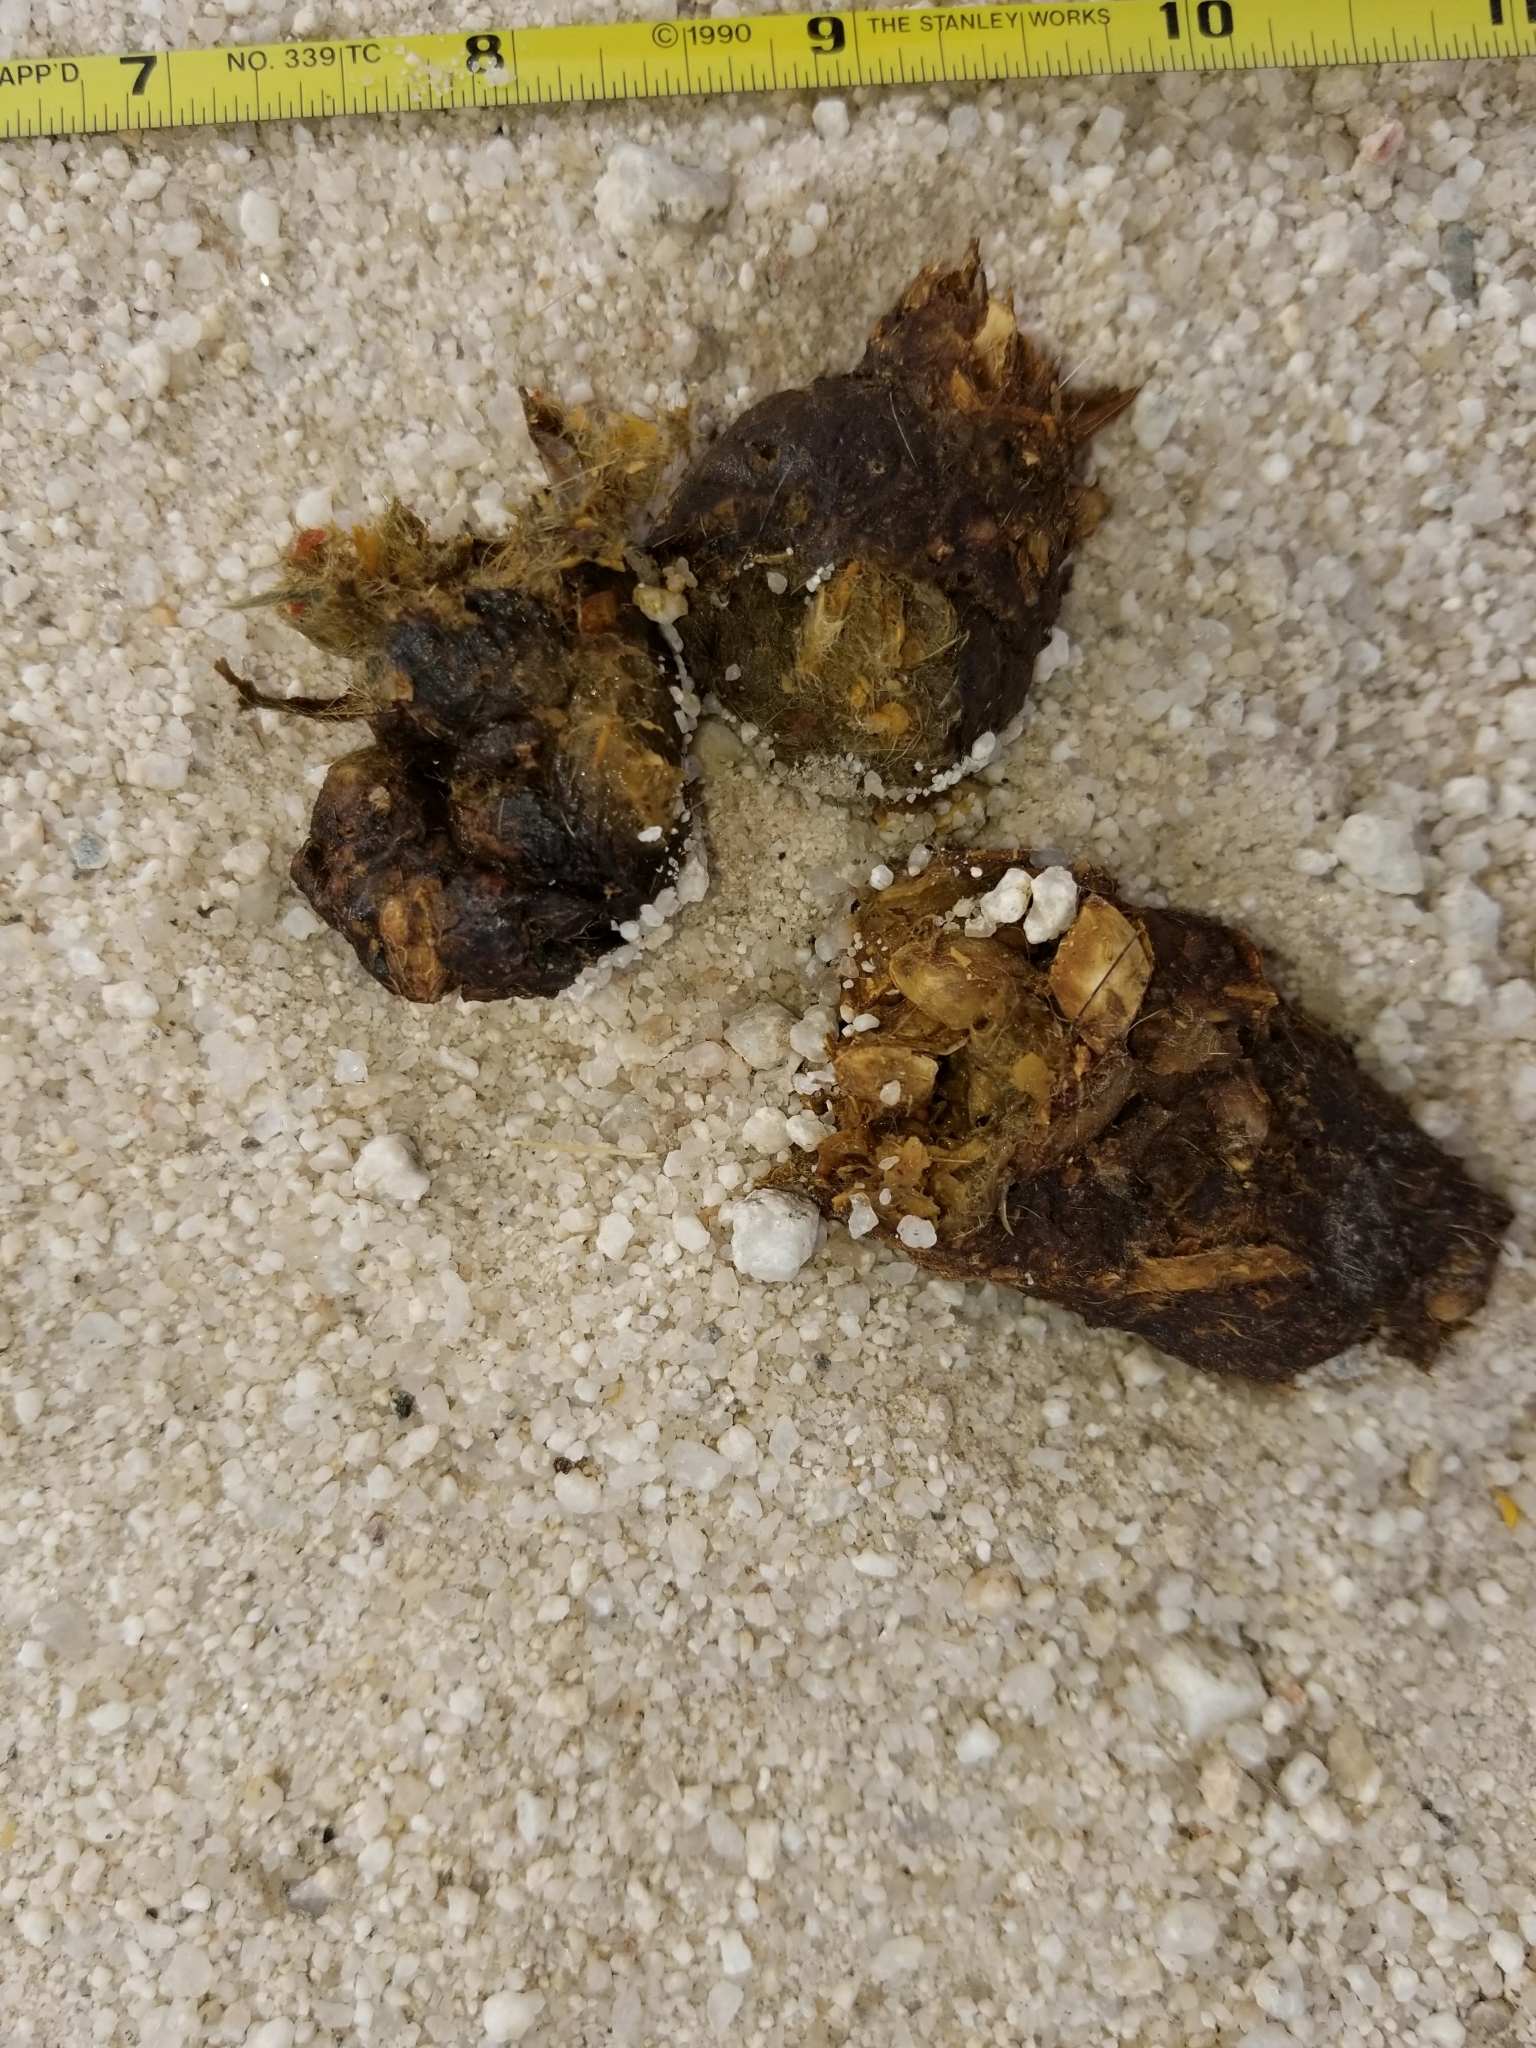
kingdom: Animalia
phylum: Chordata
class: Mammalia
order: Carnivora
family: Canidae
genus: Canis
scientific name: Canis latrans
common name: Coyote
